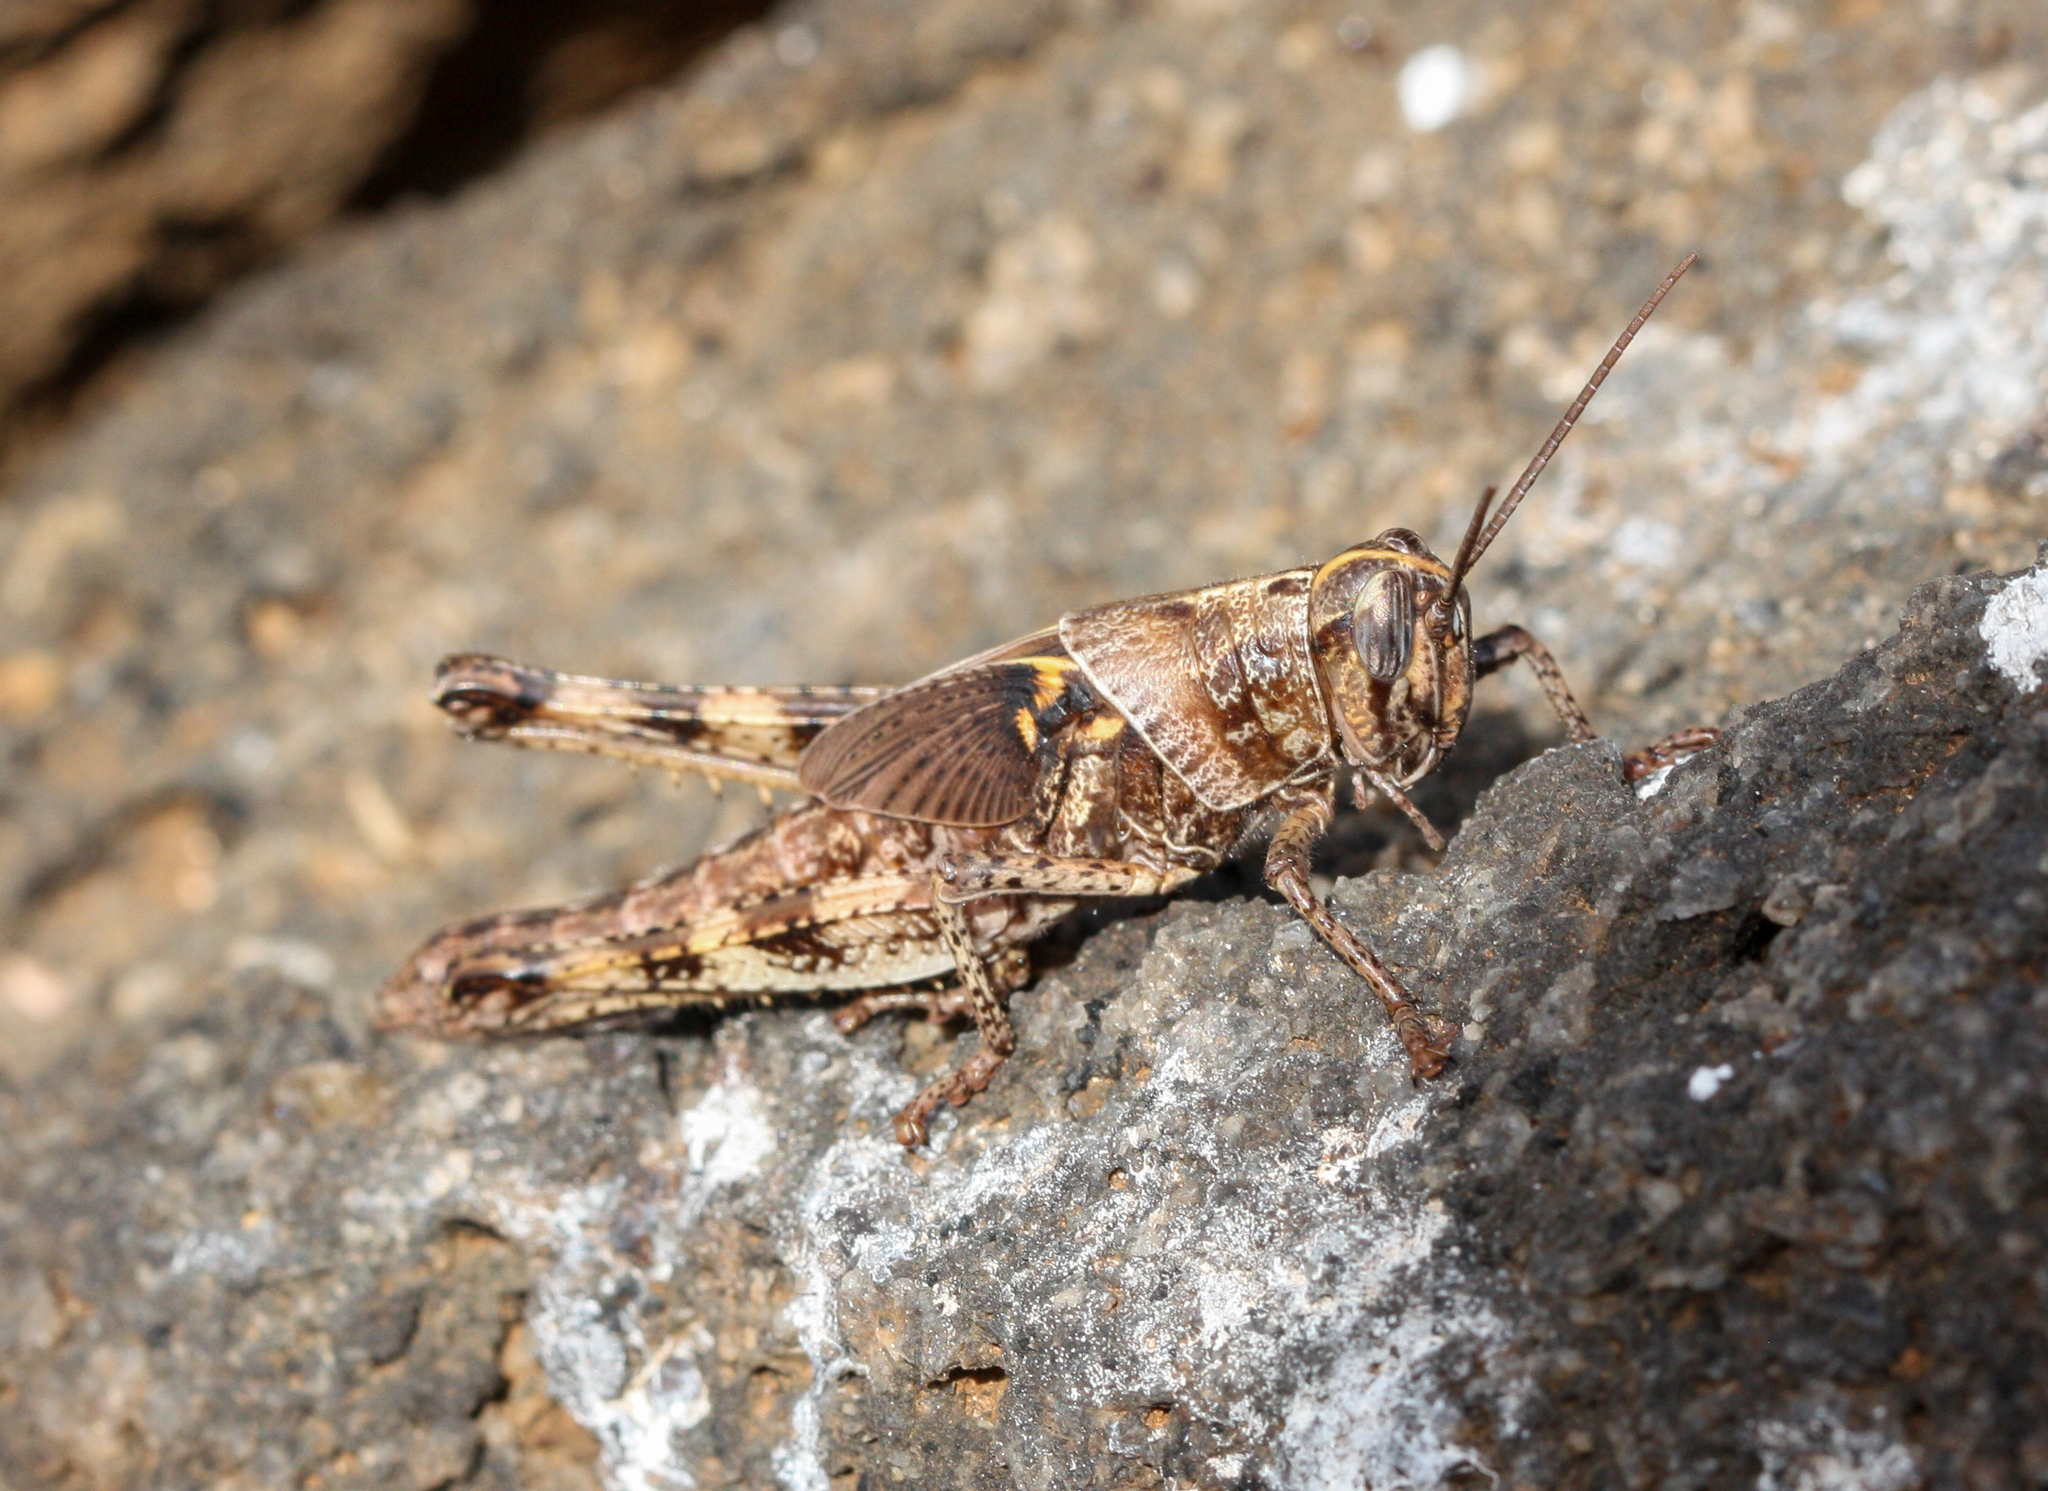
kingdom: Animalia
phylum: Arthropoda
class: Insecta
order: Orthoptera
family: Acrididae
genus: Schistocerca
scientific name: Schistocerca melanocera
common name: Large painted locust
